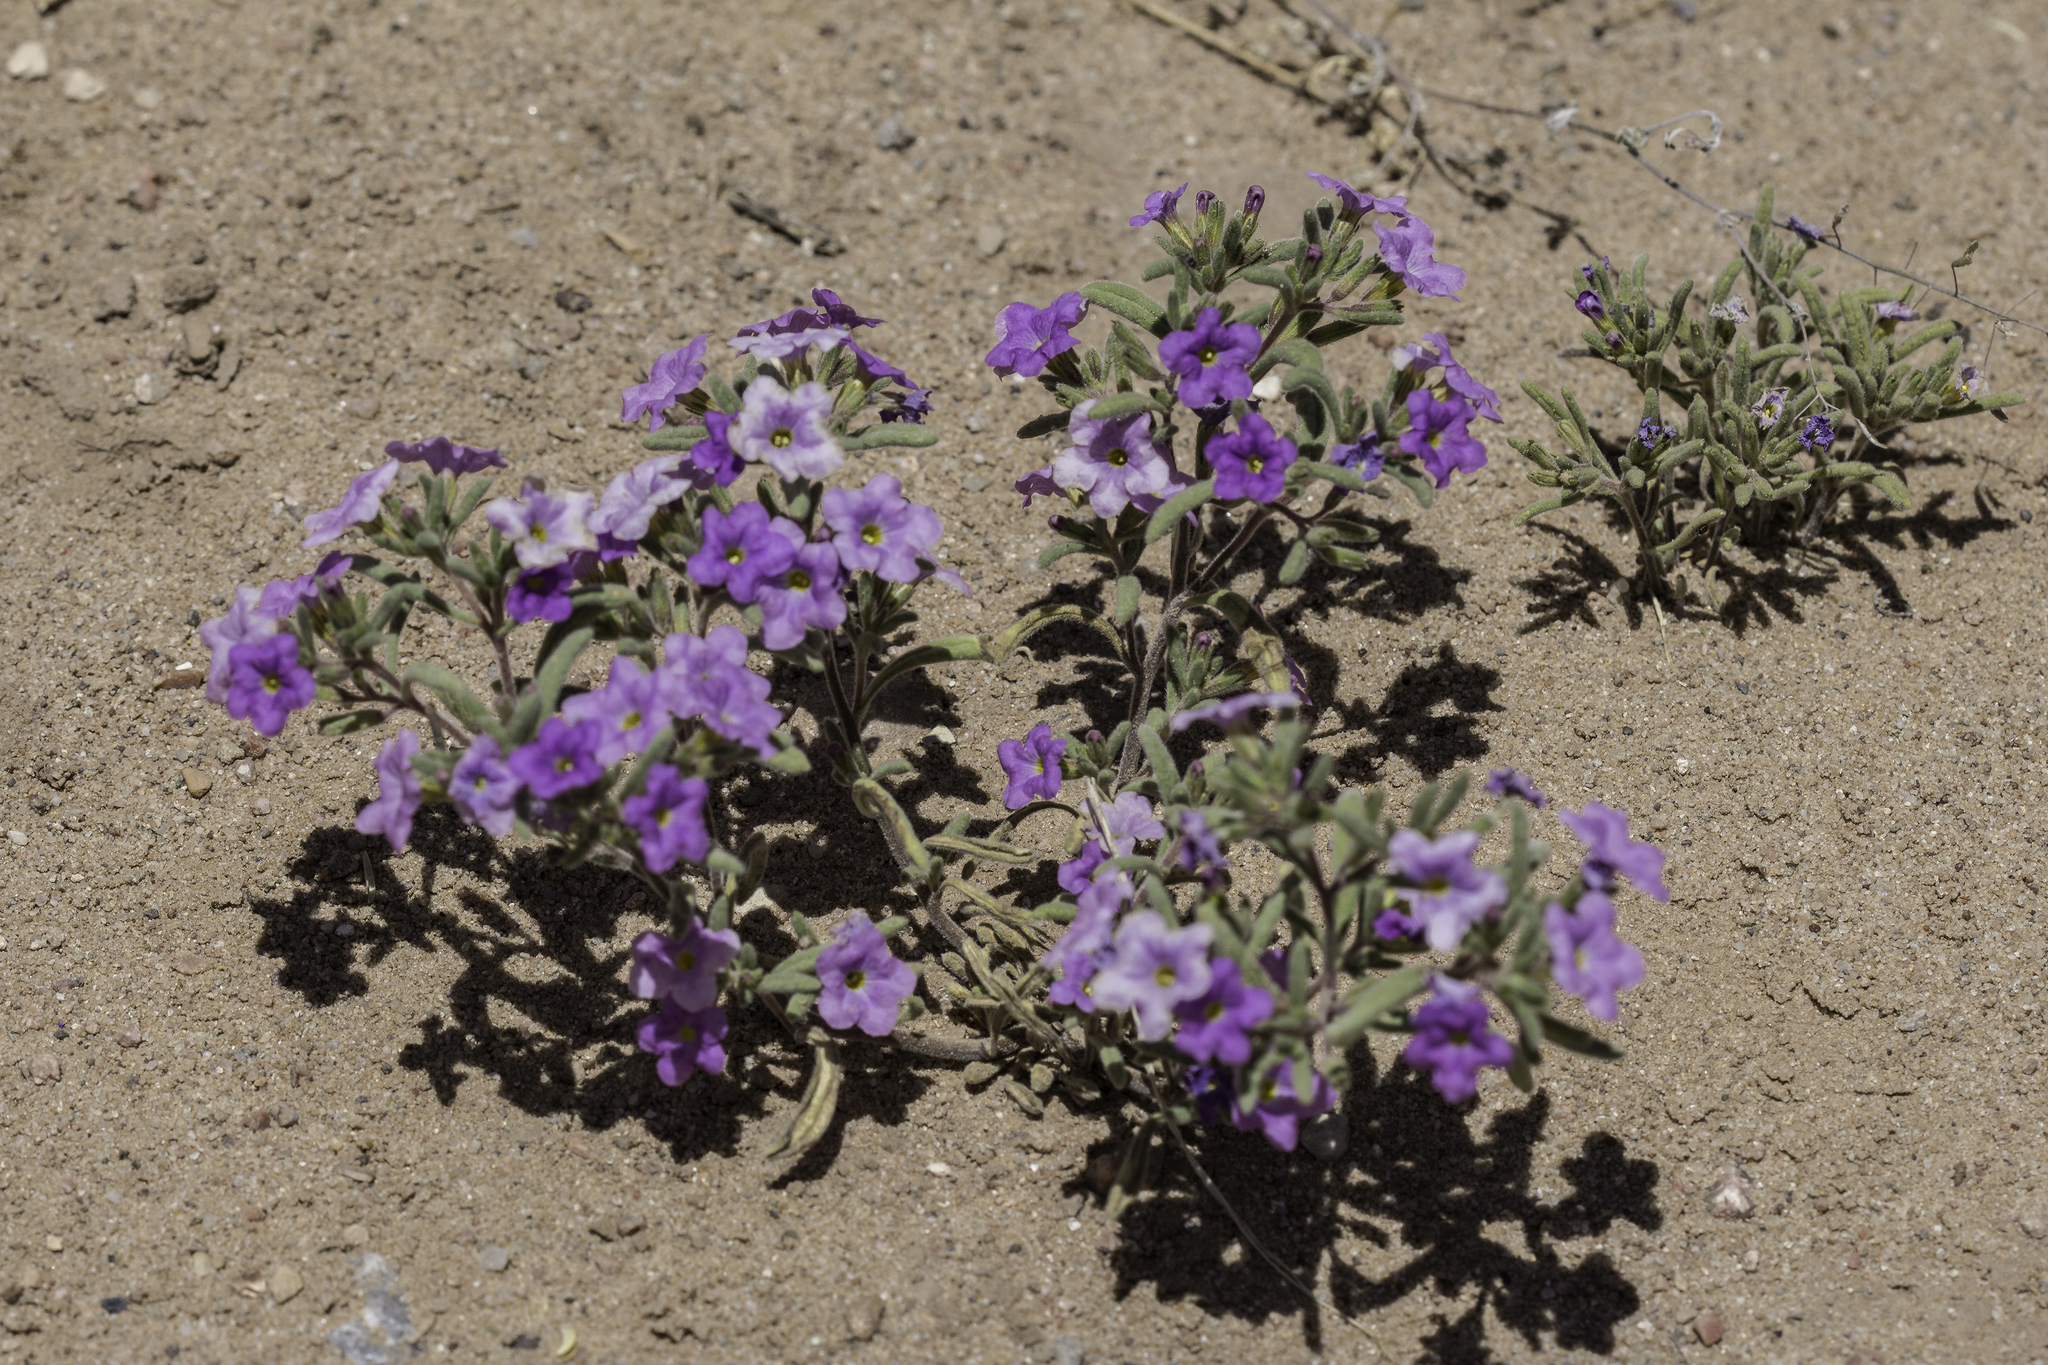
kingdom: Plantae
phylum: Tracheophyta
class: Magnoliopsida
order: Boraginales
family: Namaceae
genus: Nama
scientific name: Nama hispida
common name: Bristly nama
